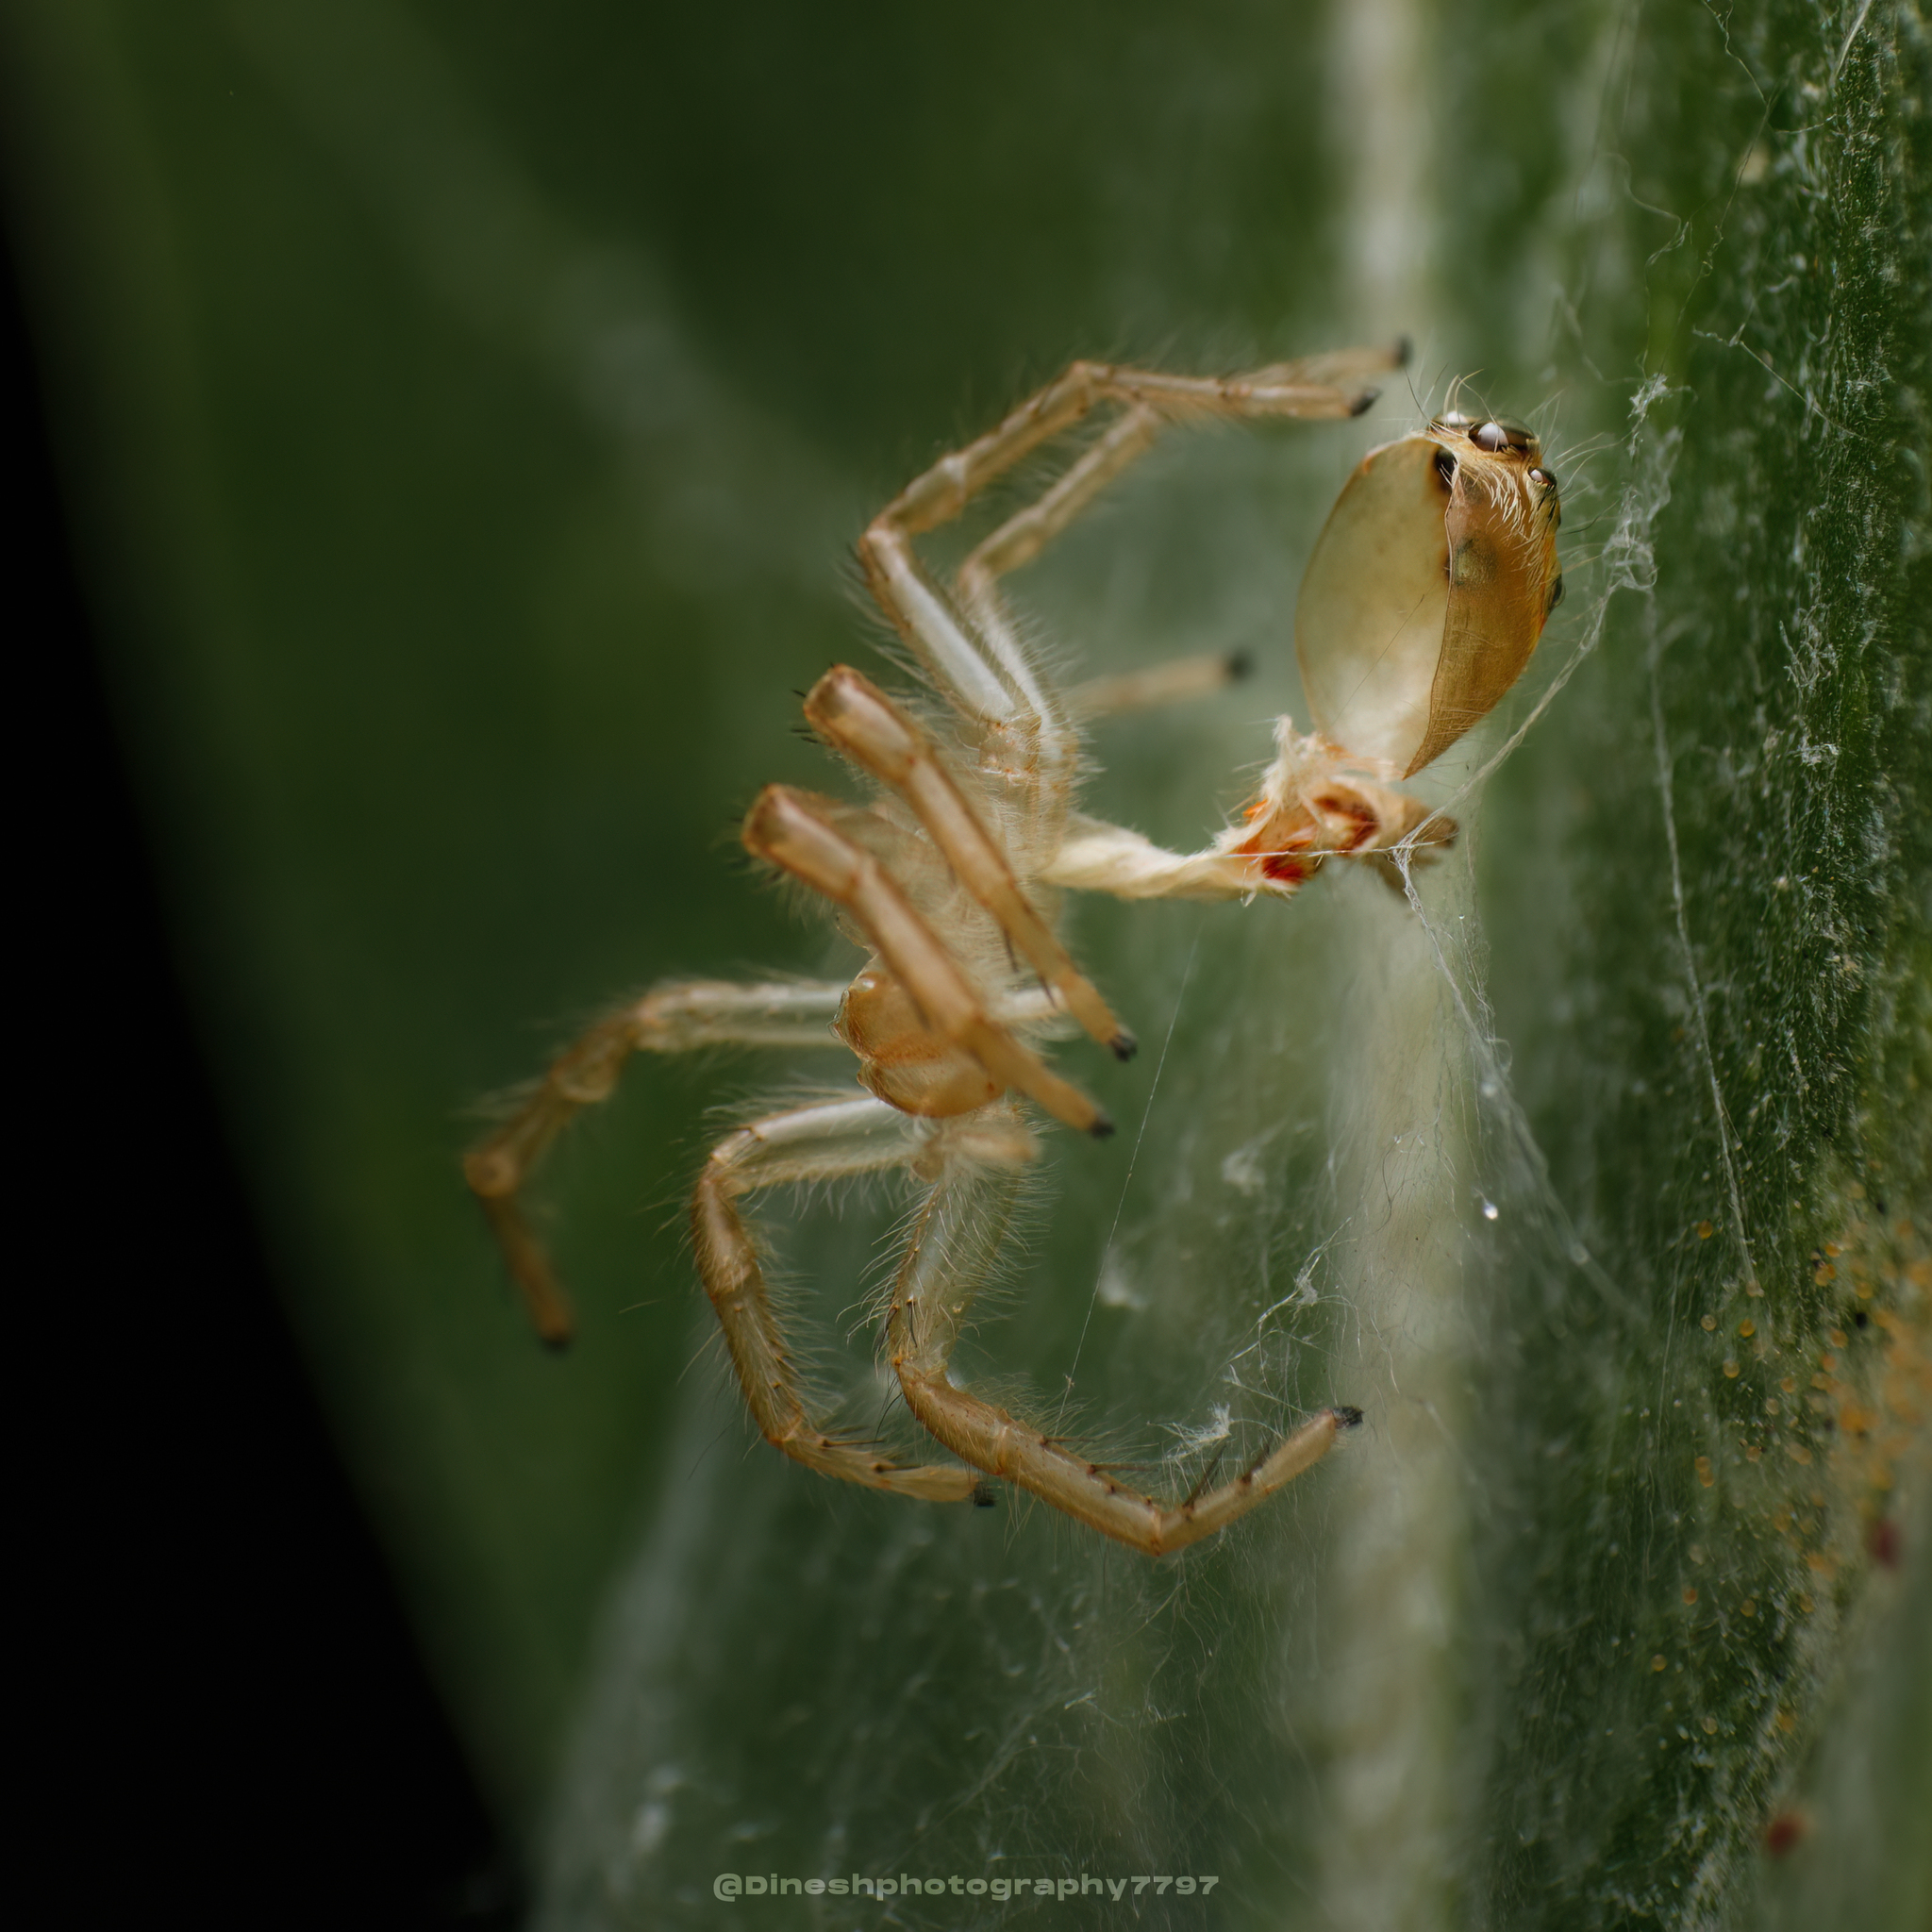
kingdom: Animalia
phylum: Arthropoda
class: Arachnida
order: Araneae
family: Salticidae
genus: Telamonia
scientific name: Telamonia dimidiata
